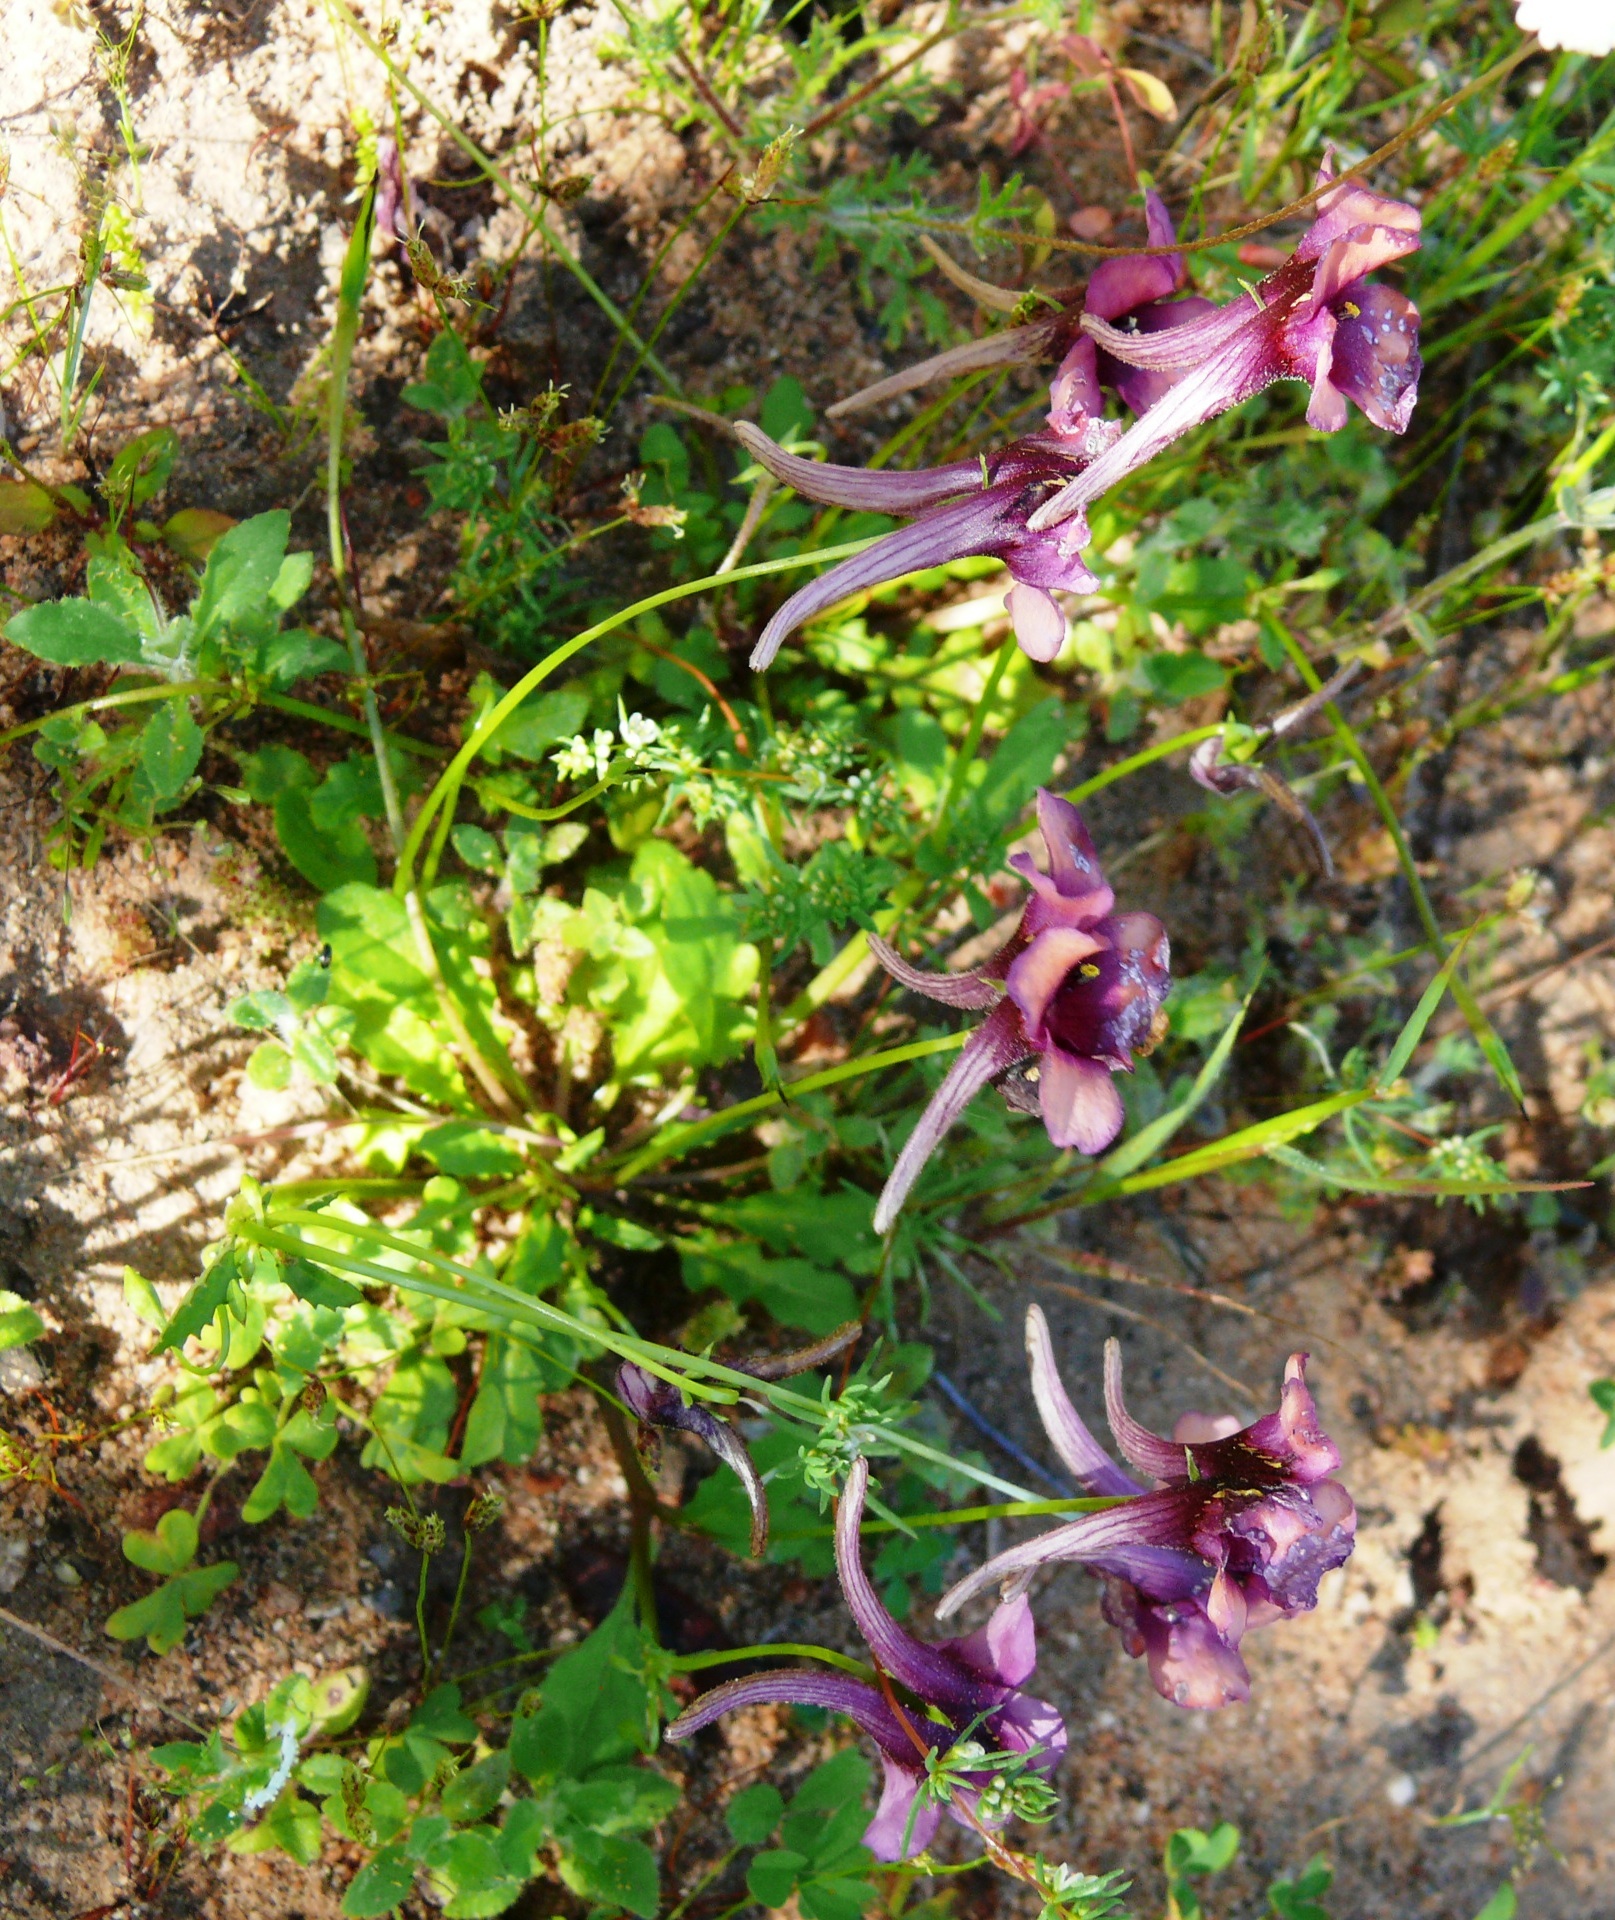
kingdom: Plantae
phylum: Tracheophyta
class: Magnoliopsida
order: Lamiales
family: Scrophulariaceae
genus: Diascia
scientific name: Diascia whiteheadii
